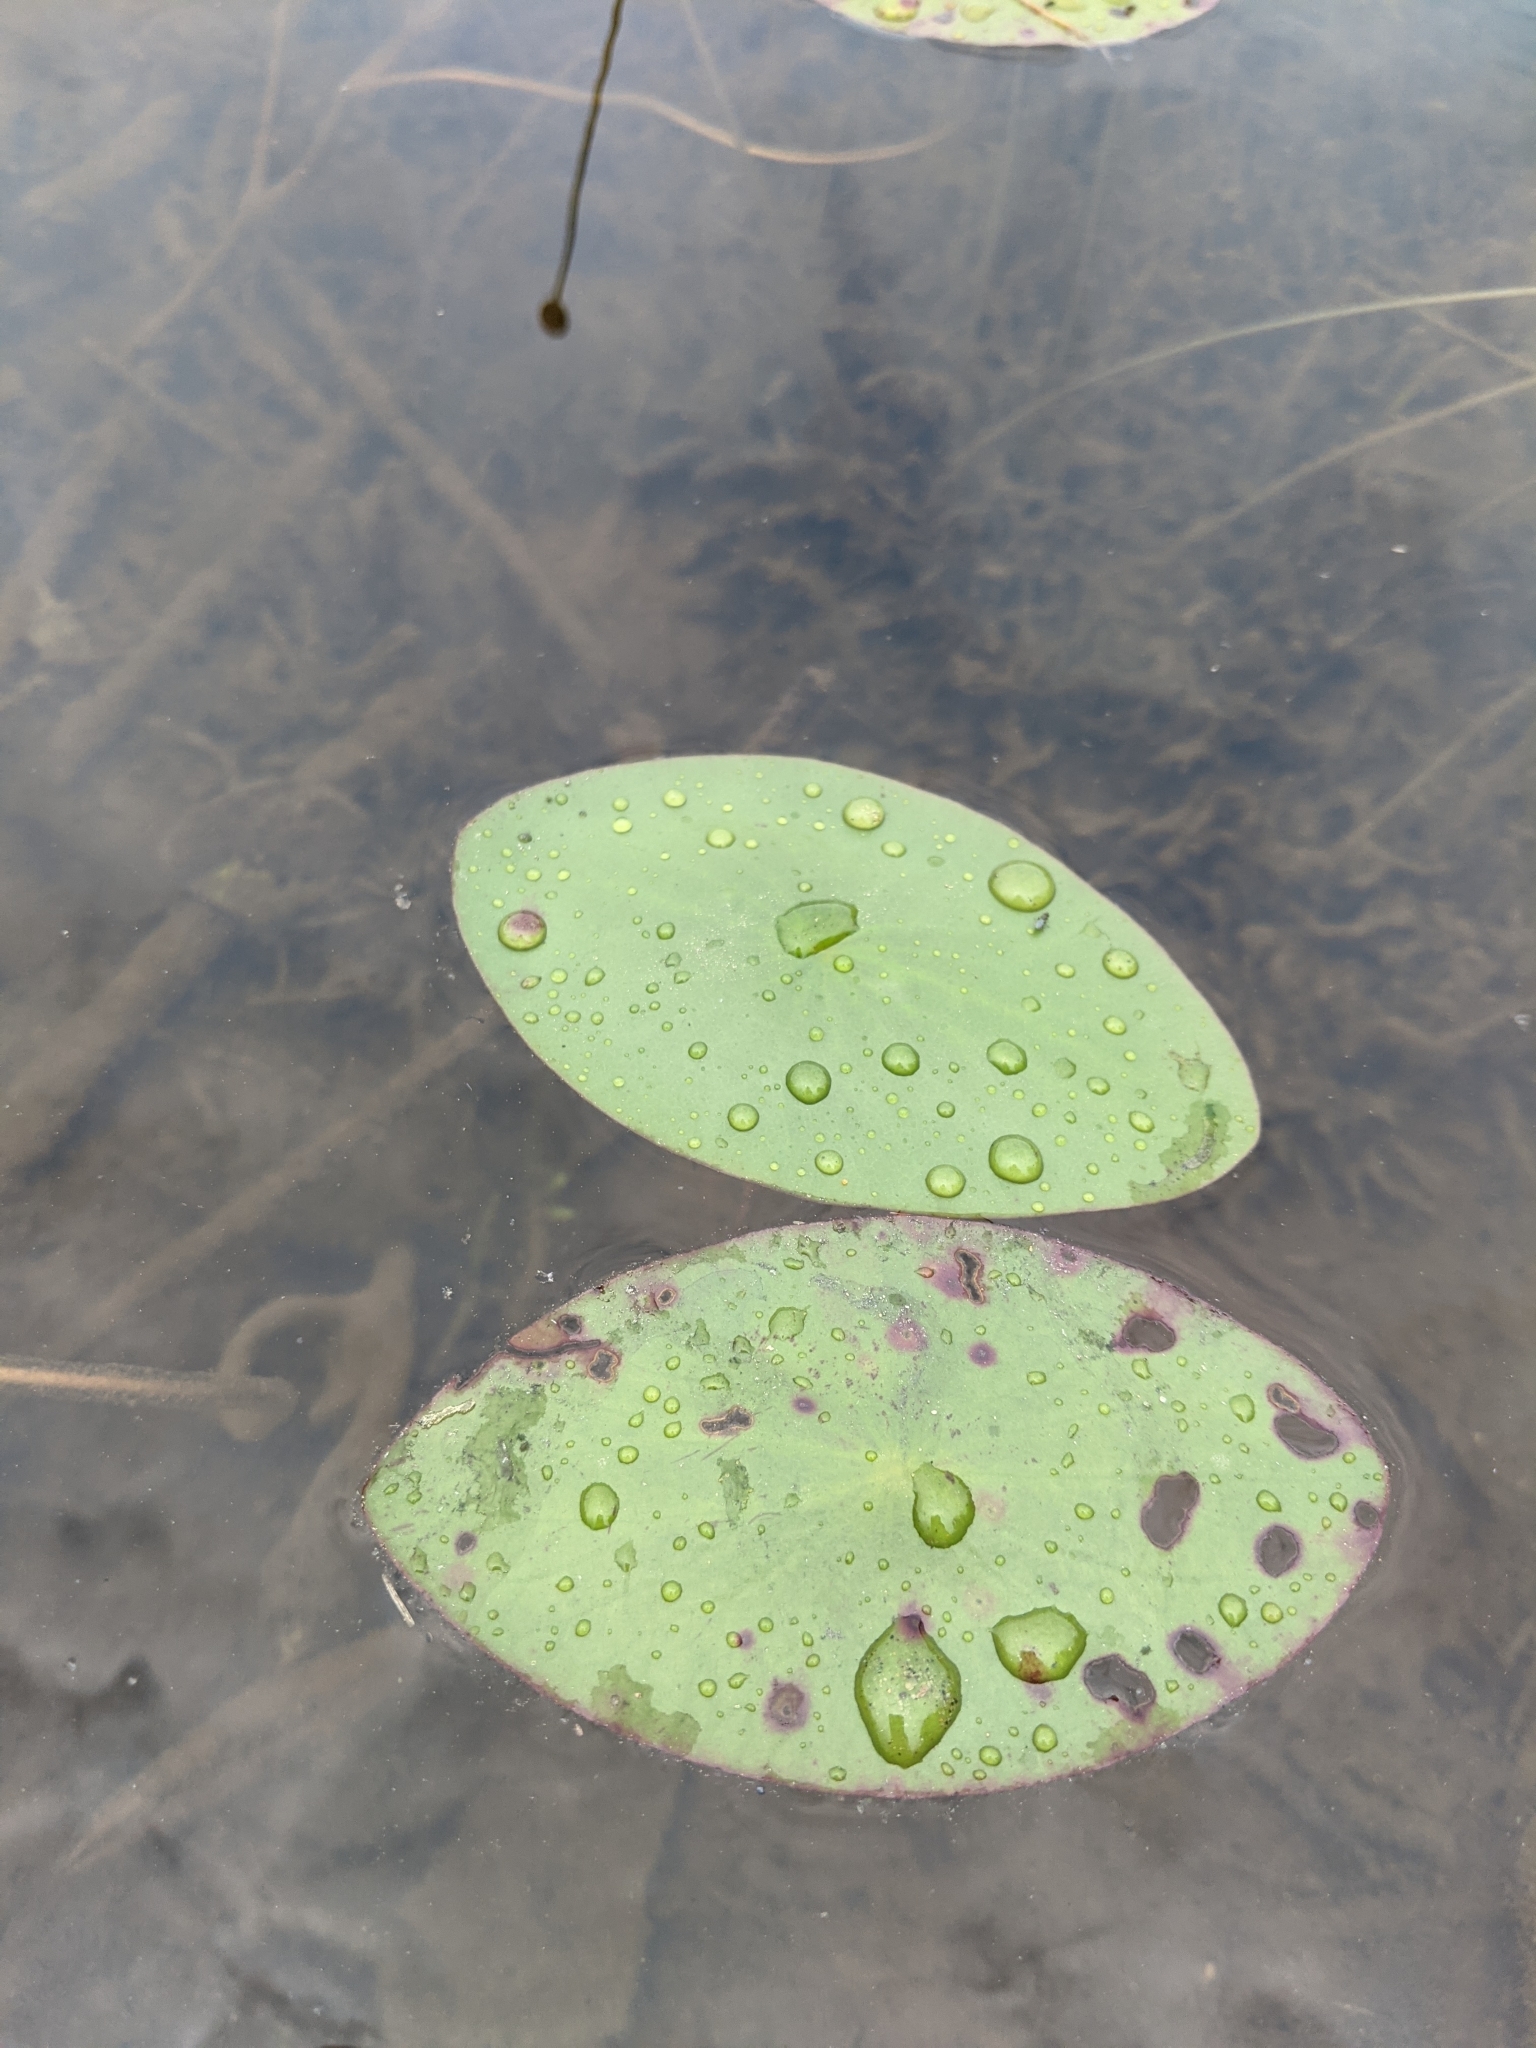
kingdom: Plantae
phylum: Tracheophyta
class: Magnoliopsida
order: Nymphaeales
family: Cabombaceae
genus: Brasenia
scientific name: Brasenia schreberi
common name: Water-shield
